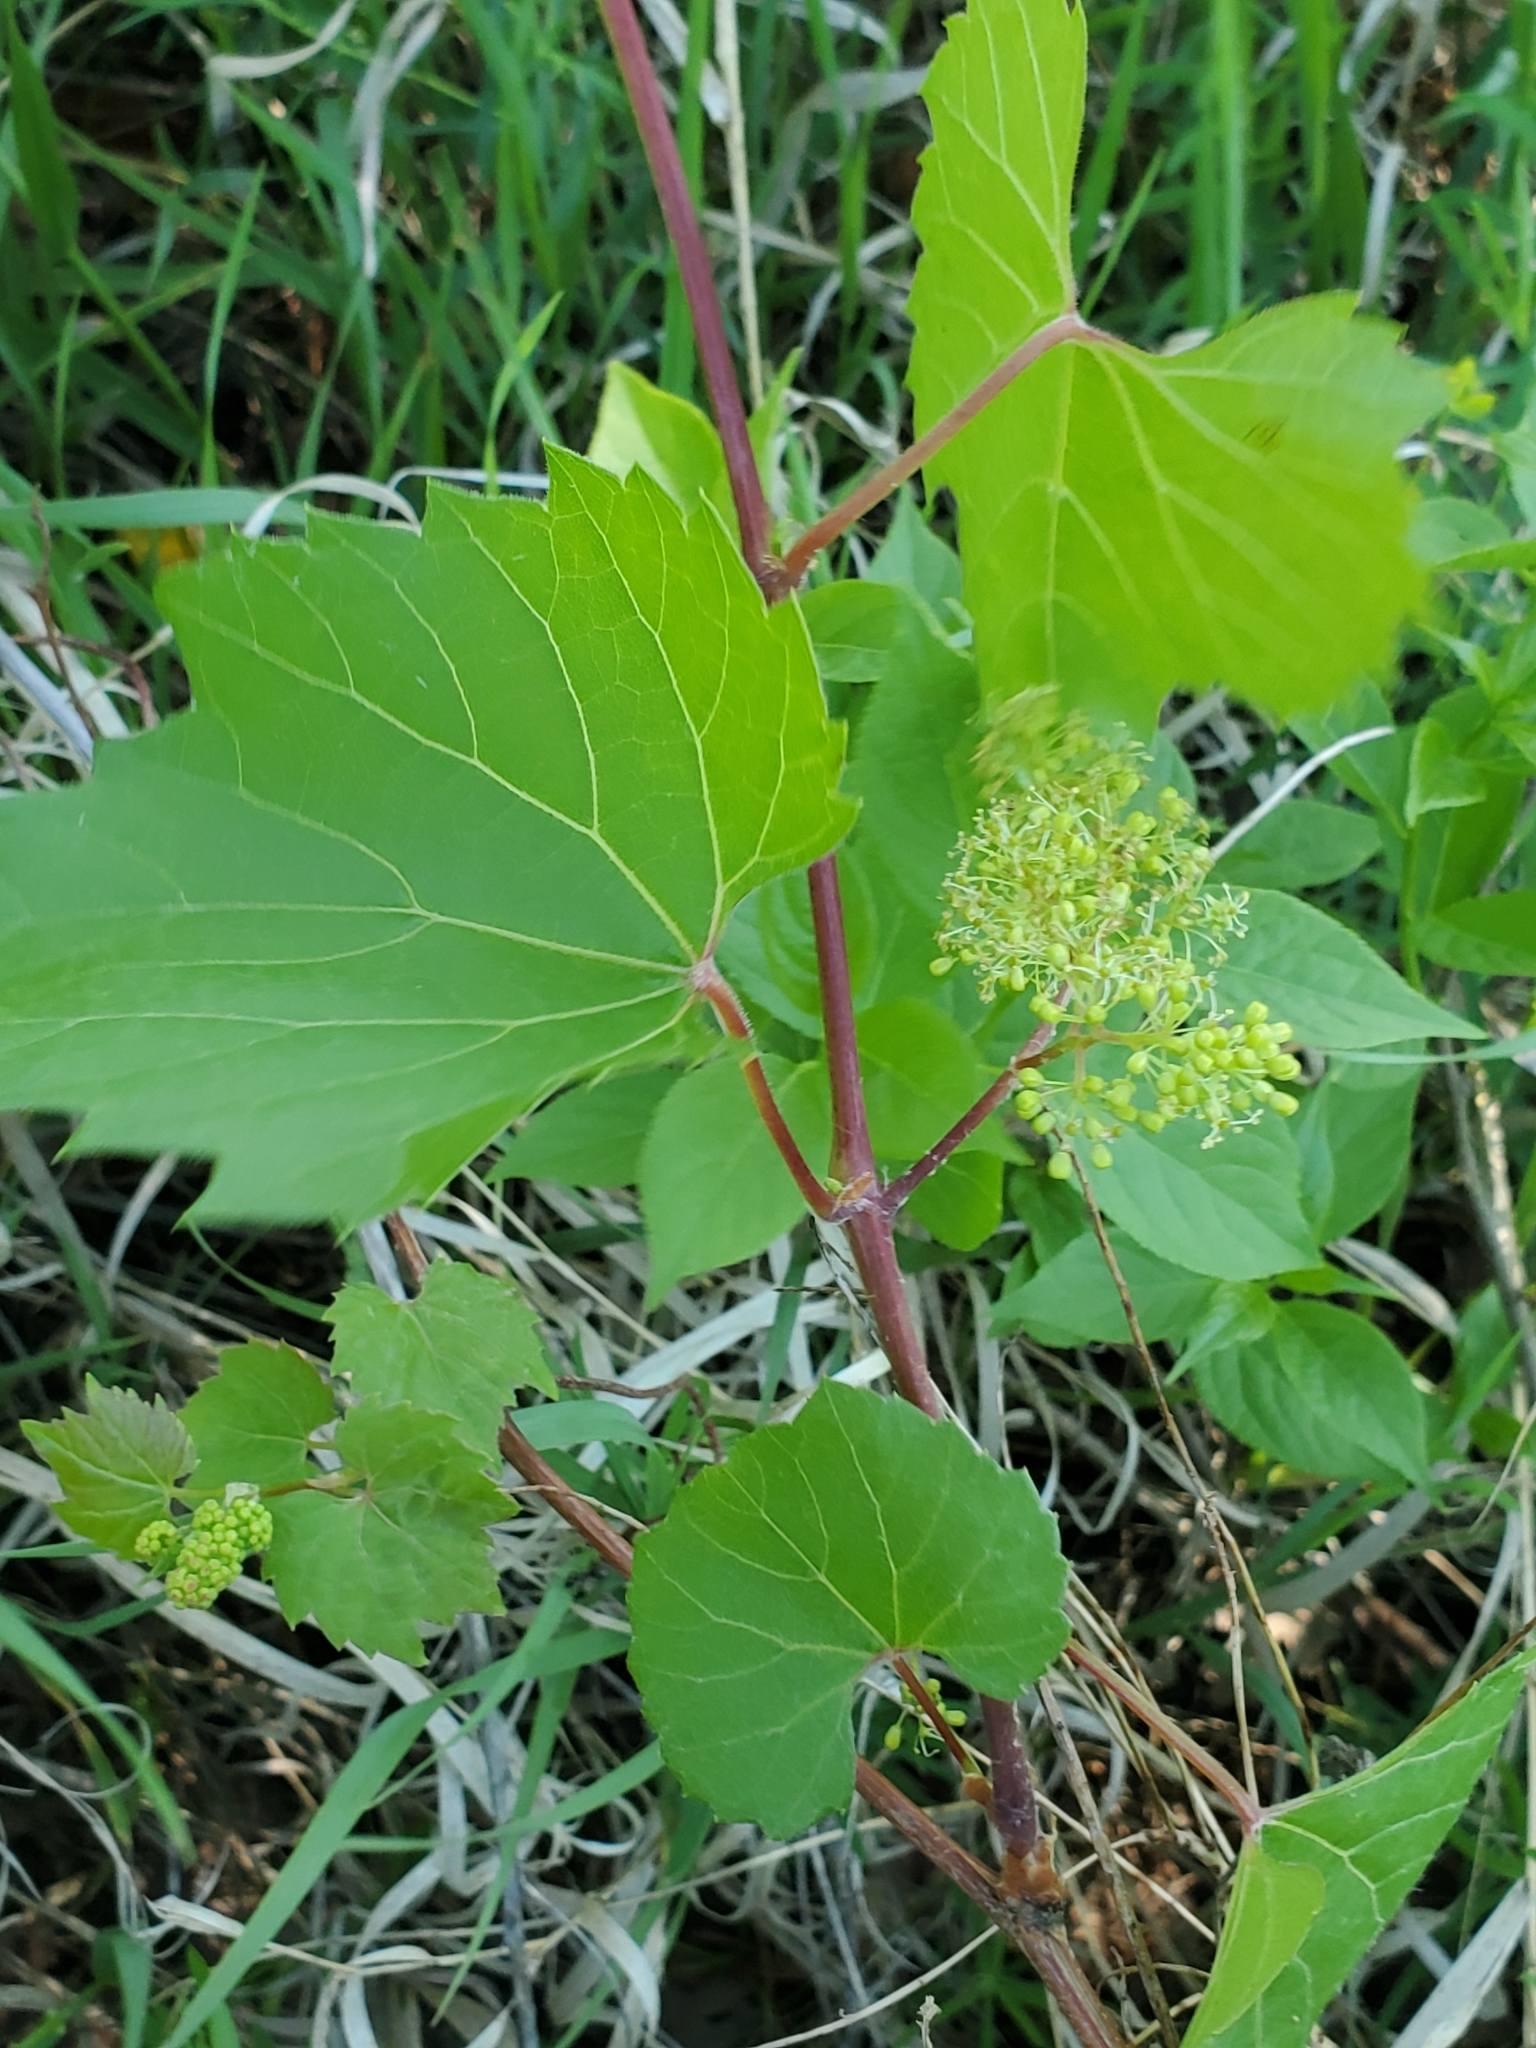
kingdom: Plantae
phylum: Tracheophyta
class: Magnoliopsida
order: Vitales
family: Vitaceae
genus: Vitis
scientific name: Vitis riparia
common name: Frost grape
